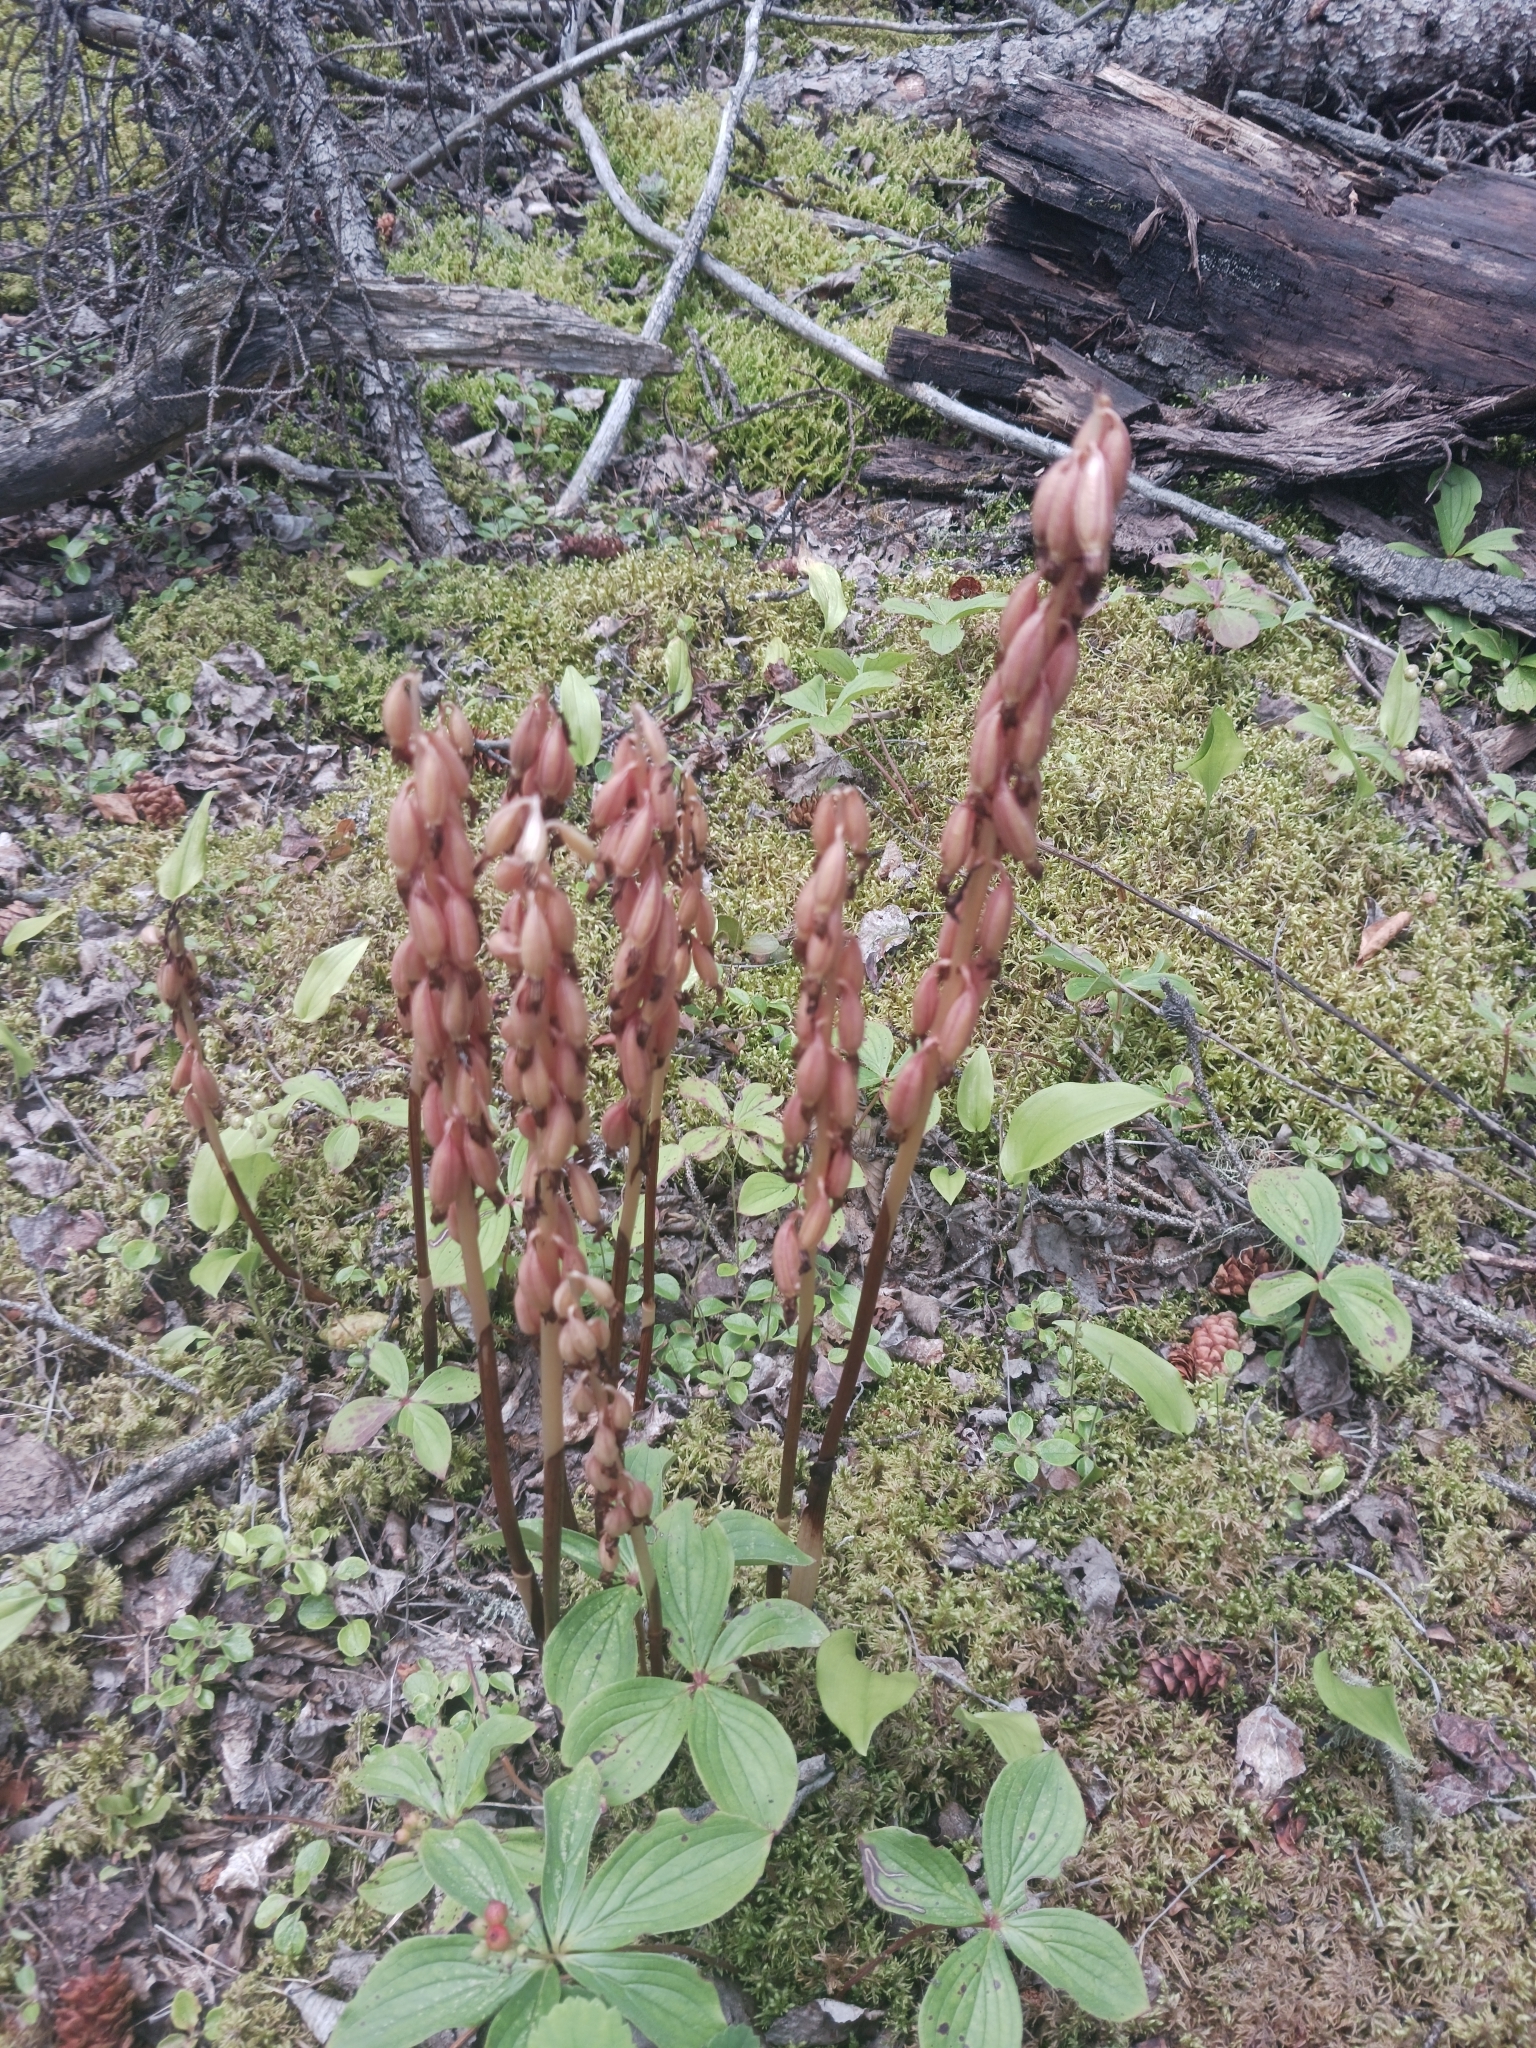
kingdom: Plantae
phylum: Tracheophyta
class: Liliopsida
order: Asparagales
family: Orchidaceae
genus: Corallorhiza
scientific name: Corallorhiza maculata
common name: Spotted coralroot
